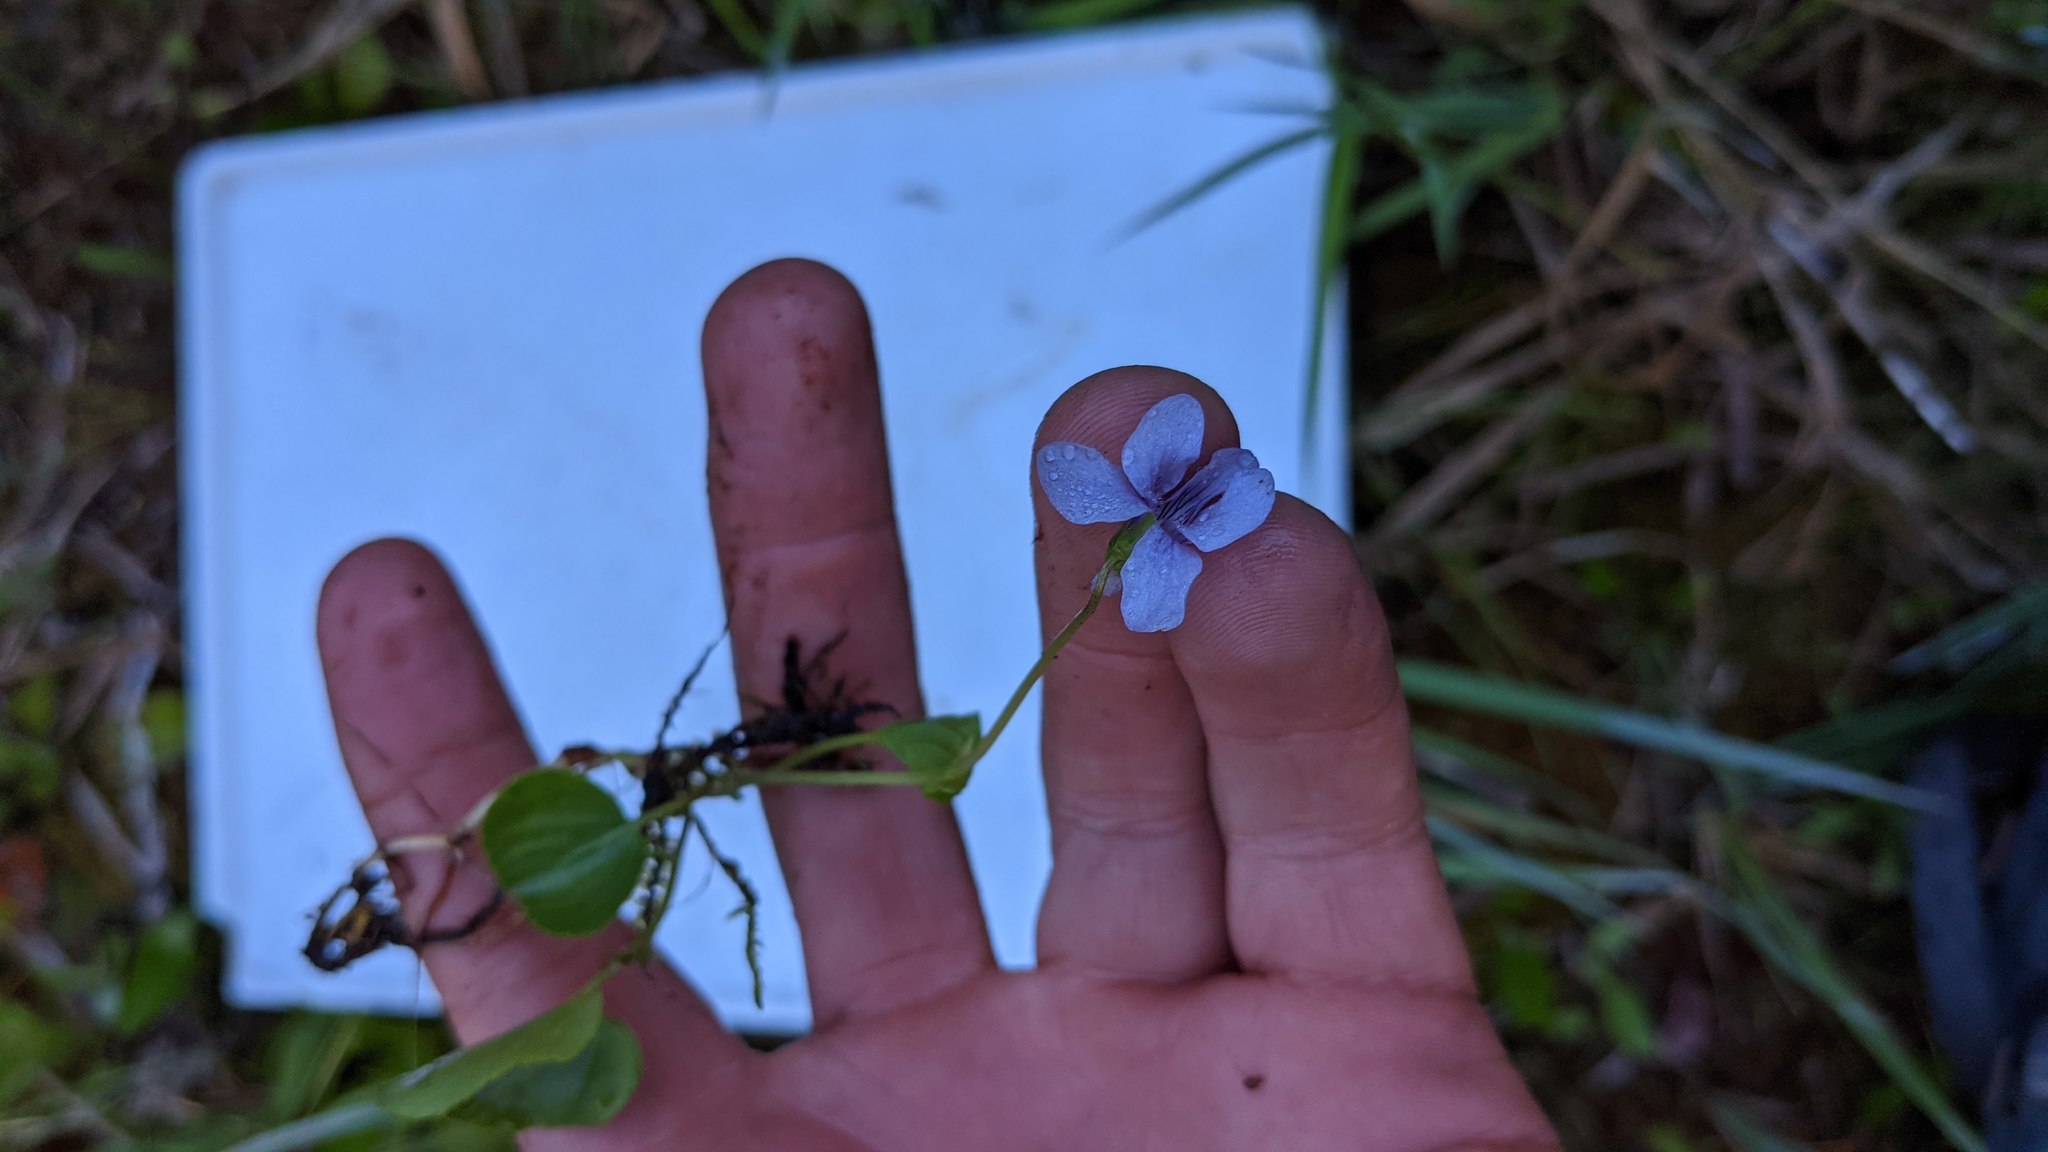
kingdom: Plantae
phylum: Tracheophyta
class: Magnoliopsida
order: Malpighiales
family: Violaceae
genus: Viola
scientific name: Viola palustris
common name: Marsh violet
